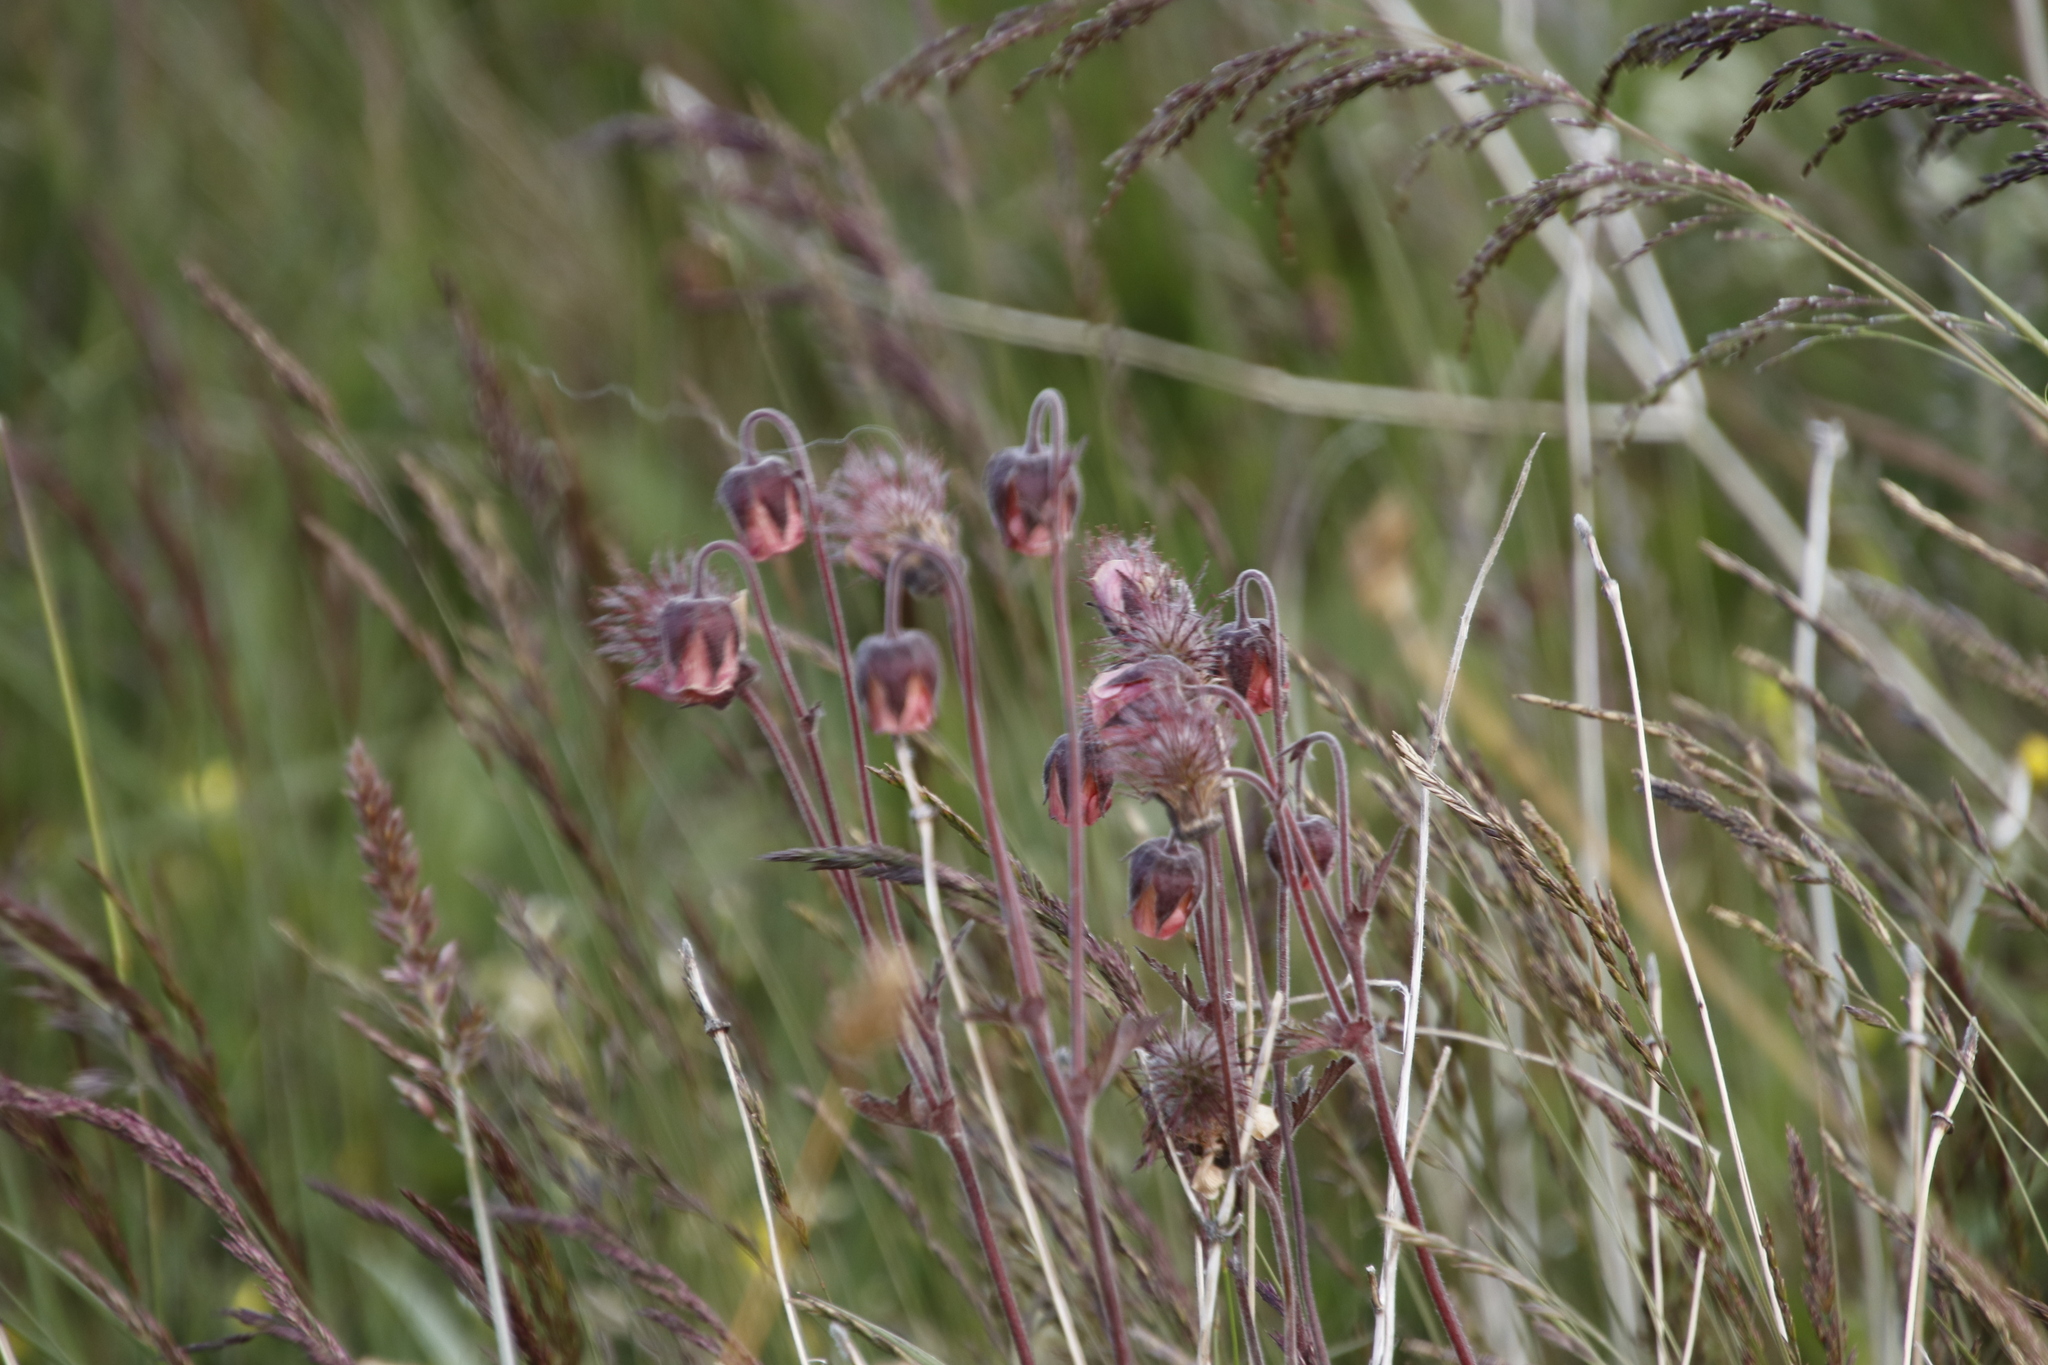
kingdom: Plantae
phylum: Tracheophyta
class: Magnoliopsida
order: Rosales
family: Rosaceae
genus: Geum
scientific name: Geum rivale
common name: Water avens
